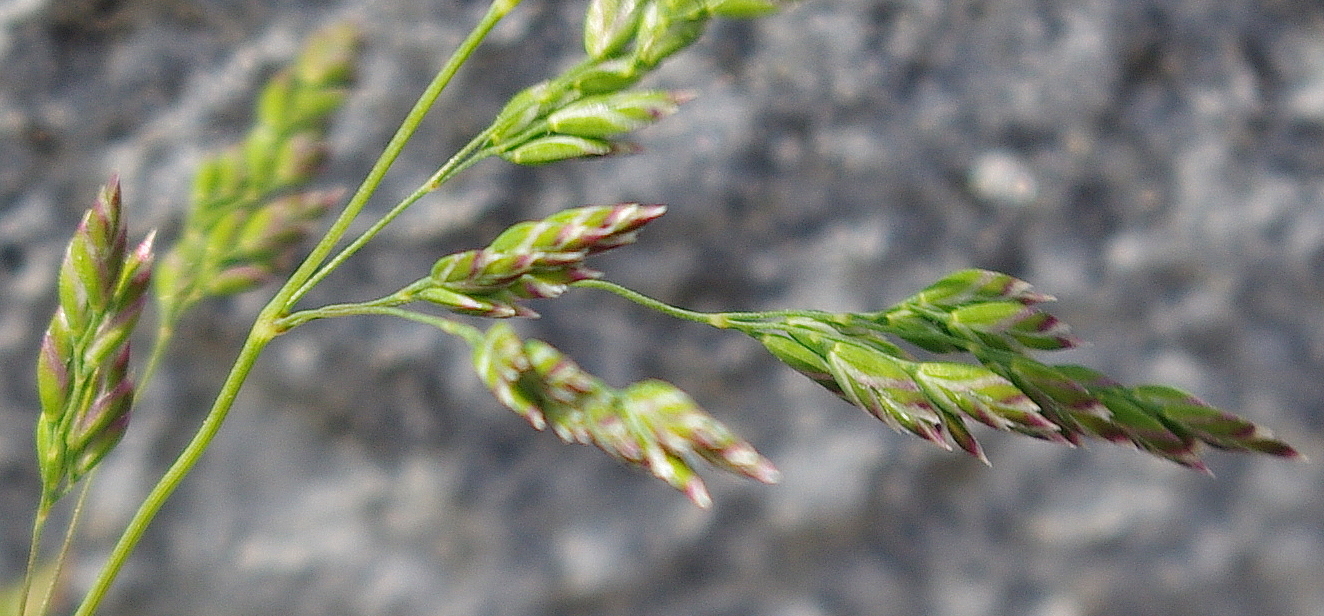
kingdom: Plantae
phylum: Tracheophyta
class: Liliopsida
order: Poales
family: Poaceae
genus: Poa
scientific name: Poa angustifolia
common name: Narrow-leaved meadow-grass
